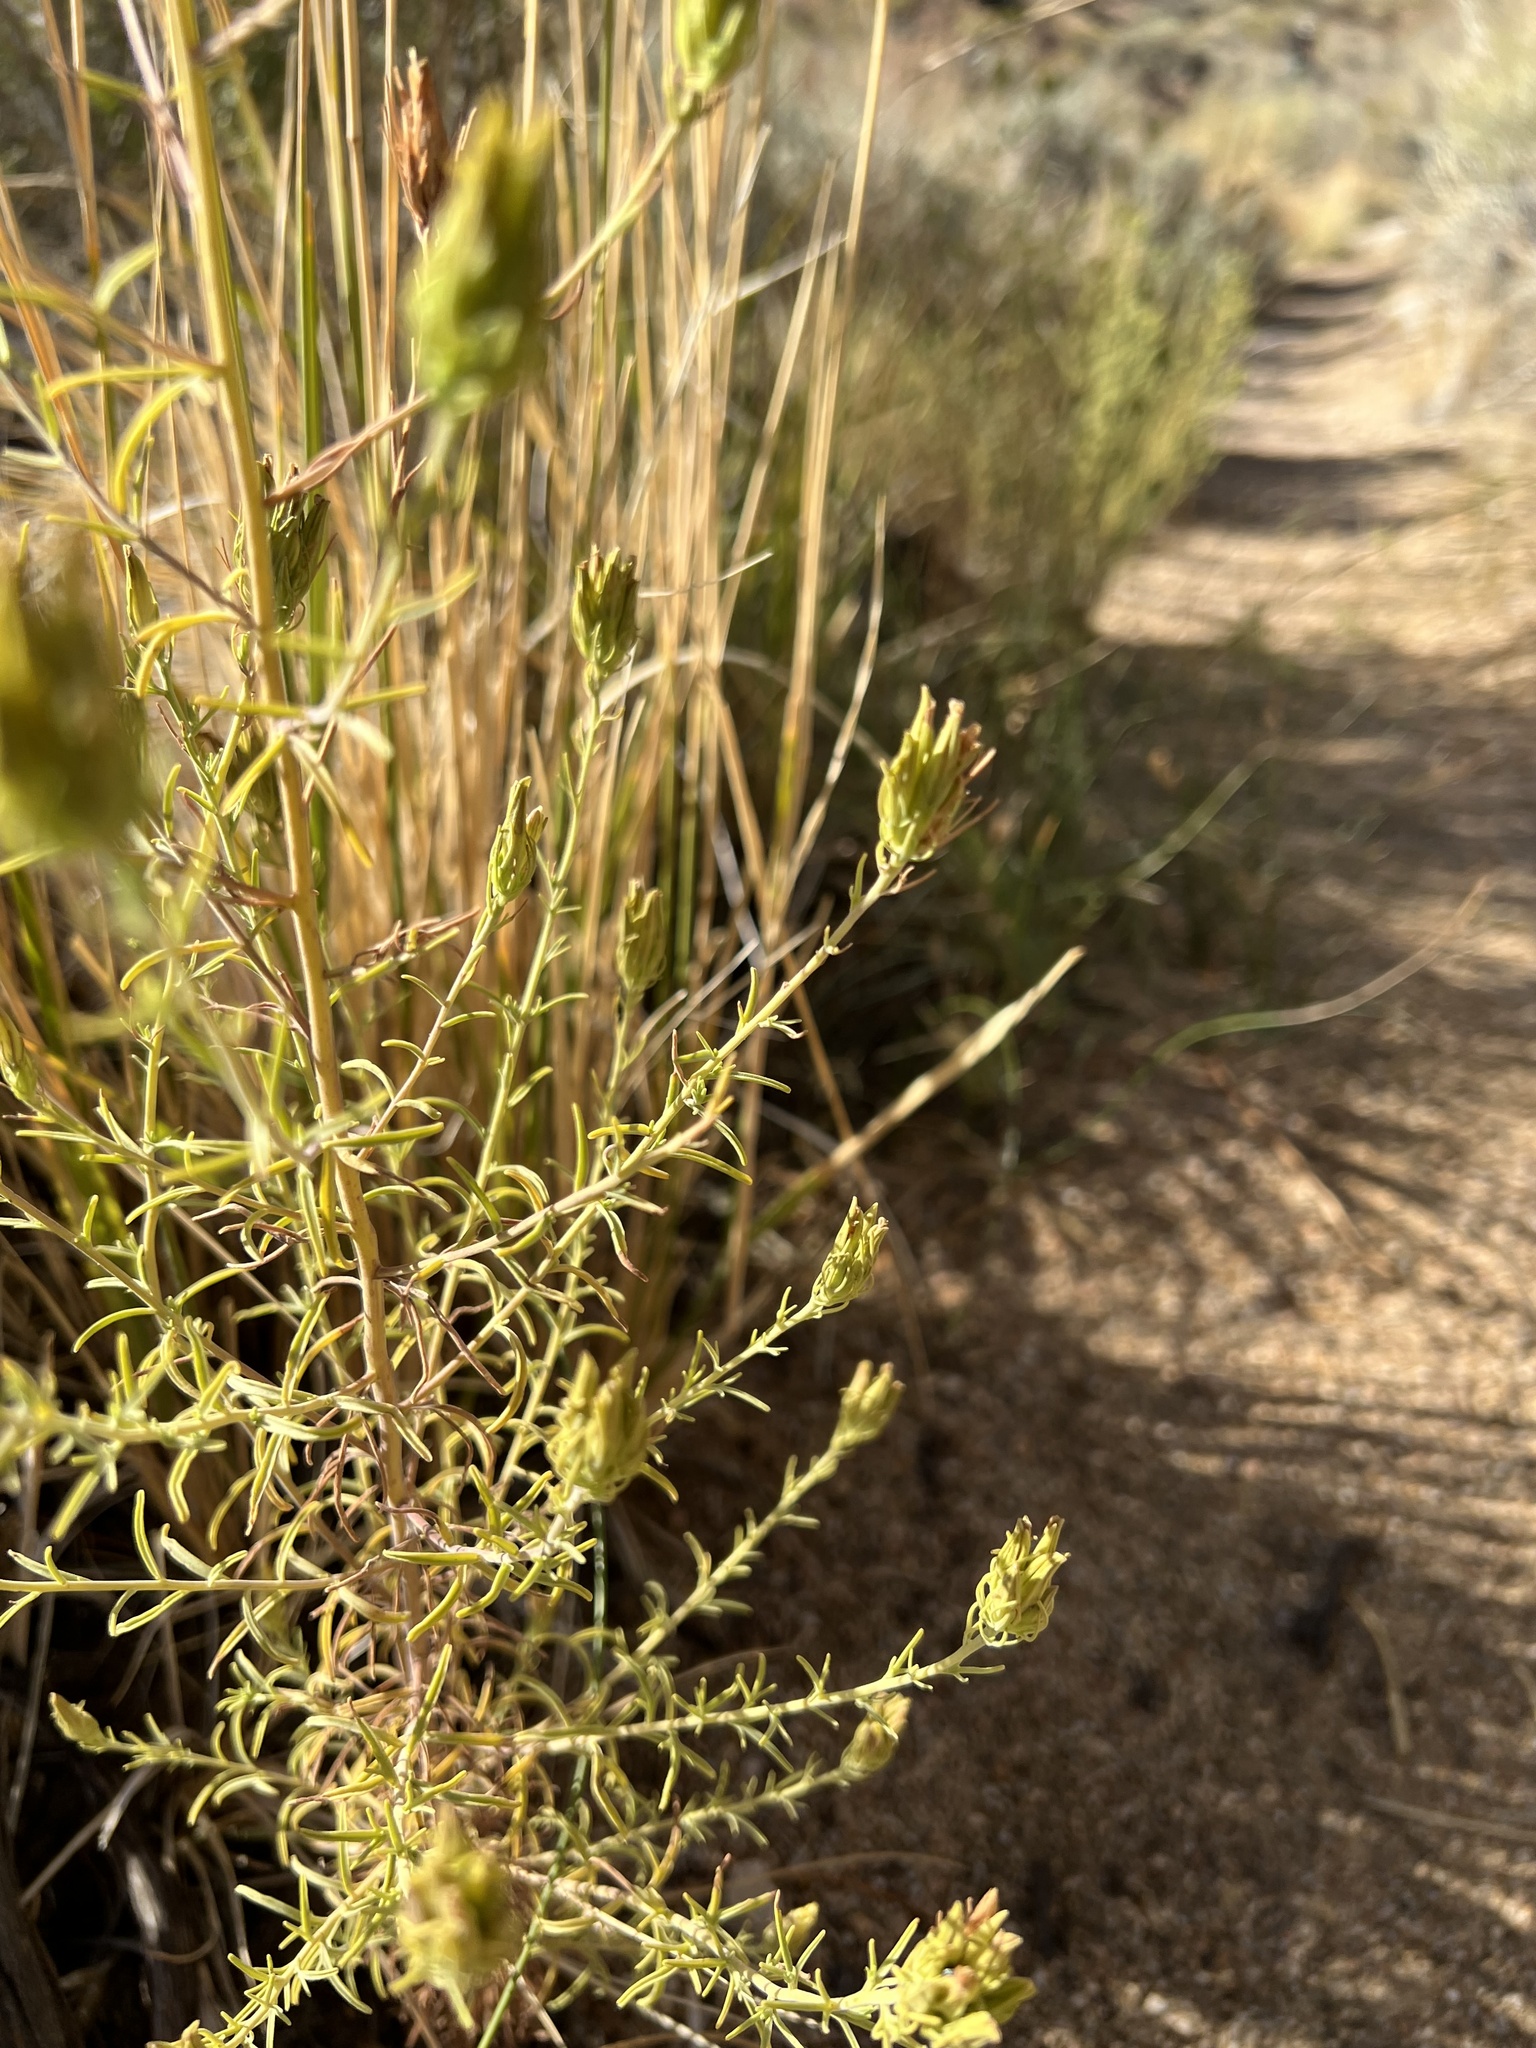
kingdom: Plantae
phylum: Tracheophyta
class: Magnoliopsida
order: Lamiales
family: Orobanchaceae
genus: Cordylanthus
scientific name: Cordylanthus ramosus
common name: Much-branched bird's-beak
